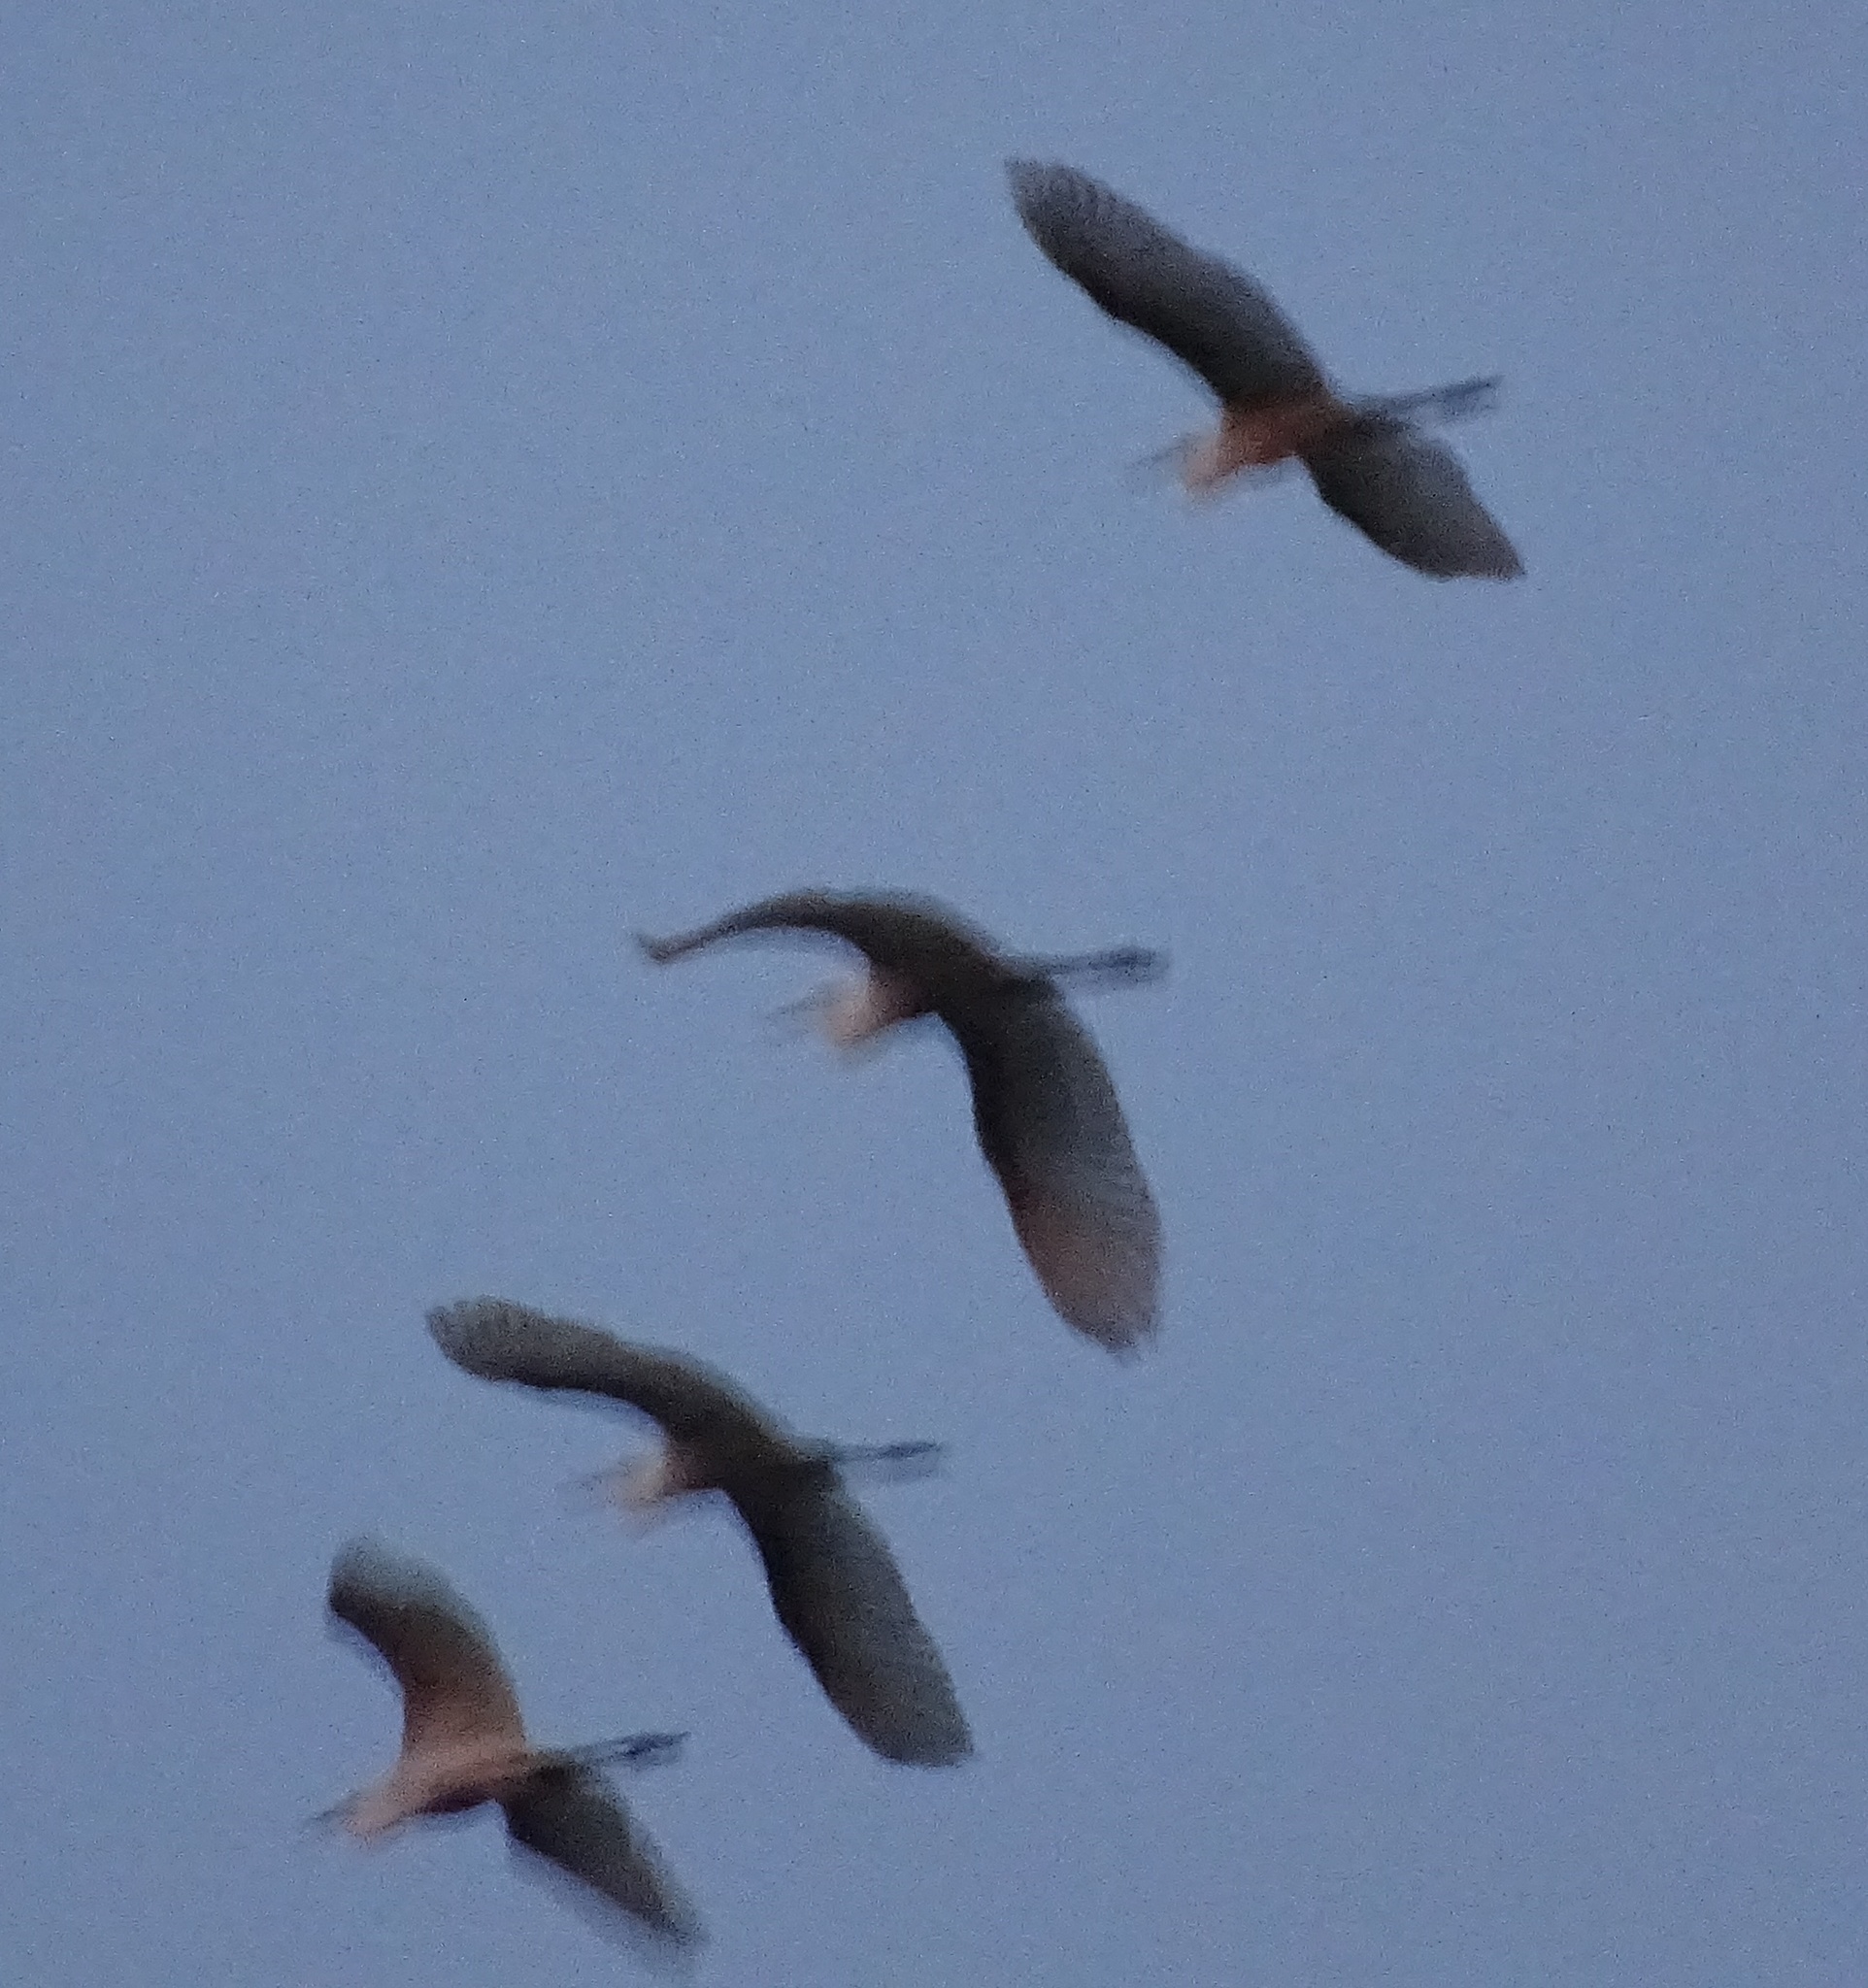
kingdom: Animalia
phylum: Chordata
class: Aves
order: Pelecaniformes
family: Ardeidae
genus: Ardea
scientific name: Ardea alba
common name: Great egret
